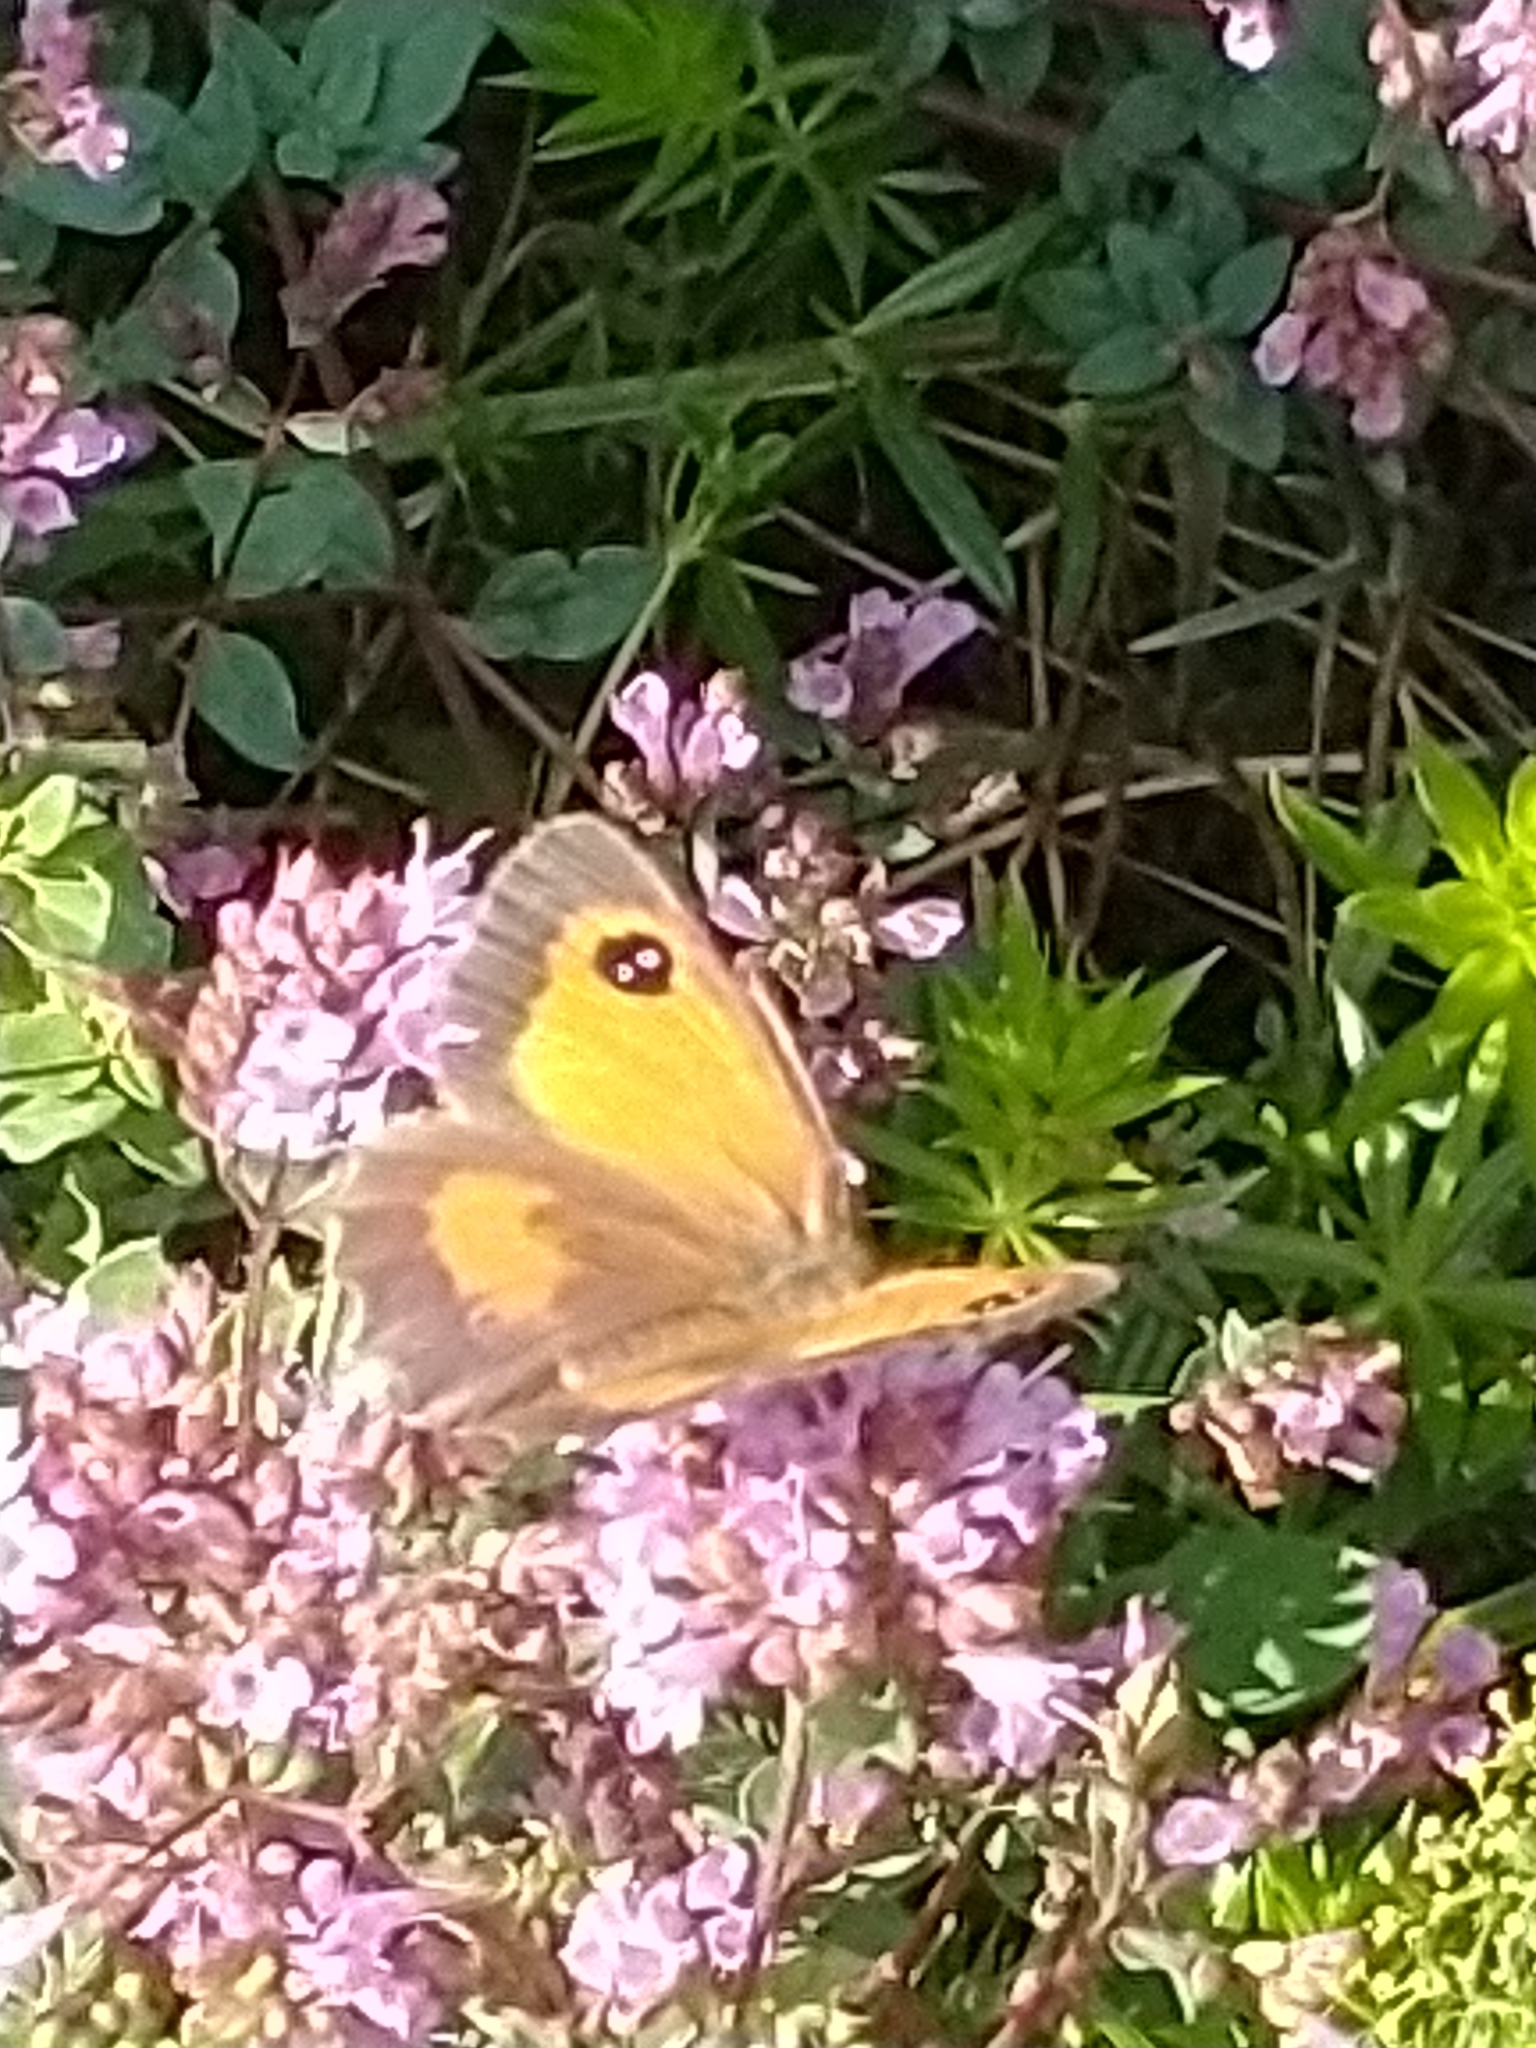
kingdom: Animalia
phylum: Arthropoda
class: Insecta
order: Lepidoptera
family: Nymphalidae
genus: Pyronia
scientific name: Pyronia tithonus
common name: Gatekeeper
